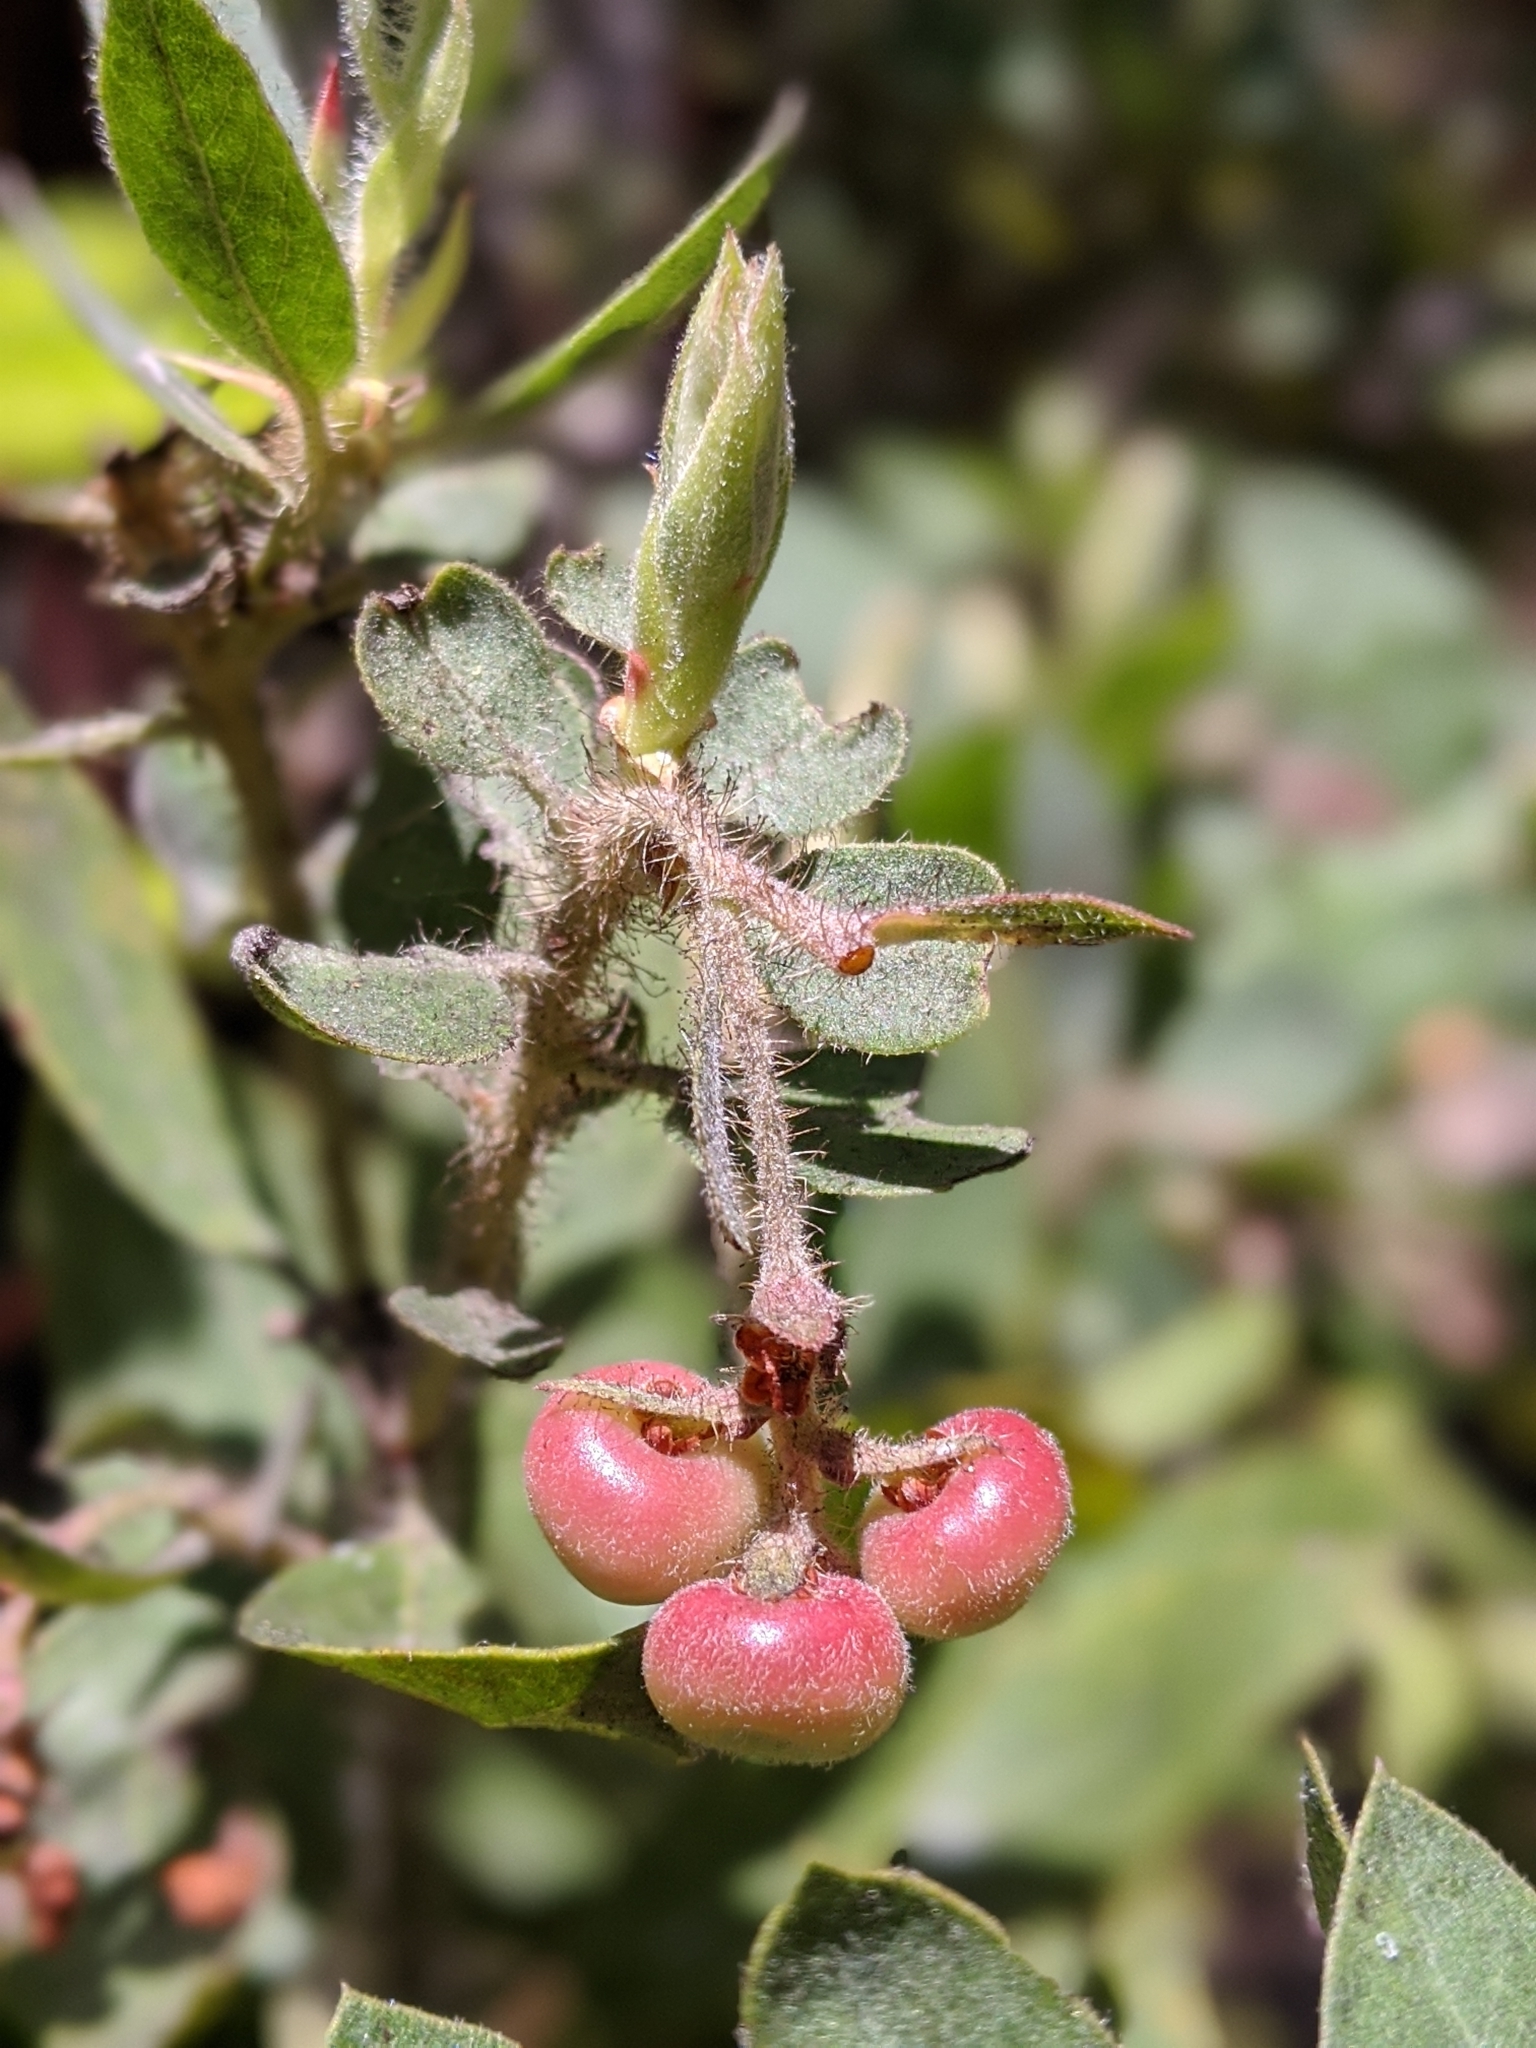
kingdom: Plantae
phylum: Tracheophyta
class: Magnoliopsida
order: Ericales
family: Ericaceae
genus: Arctostaphylos
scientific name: Arctostaphylos columbiana
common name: Bristly bearberry
